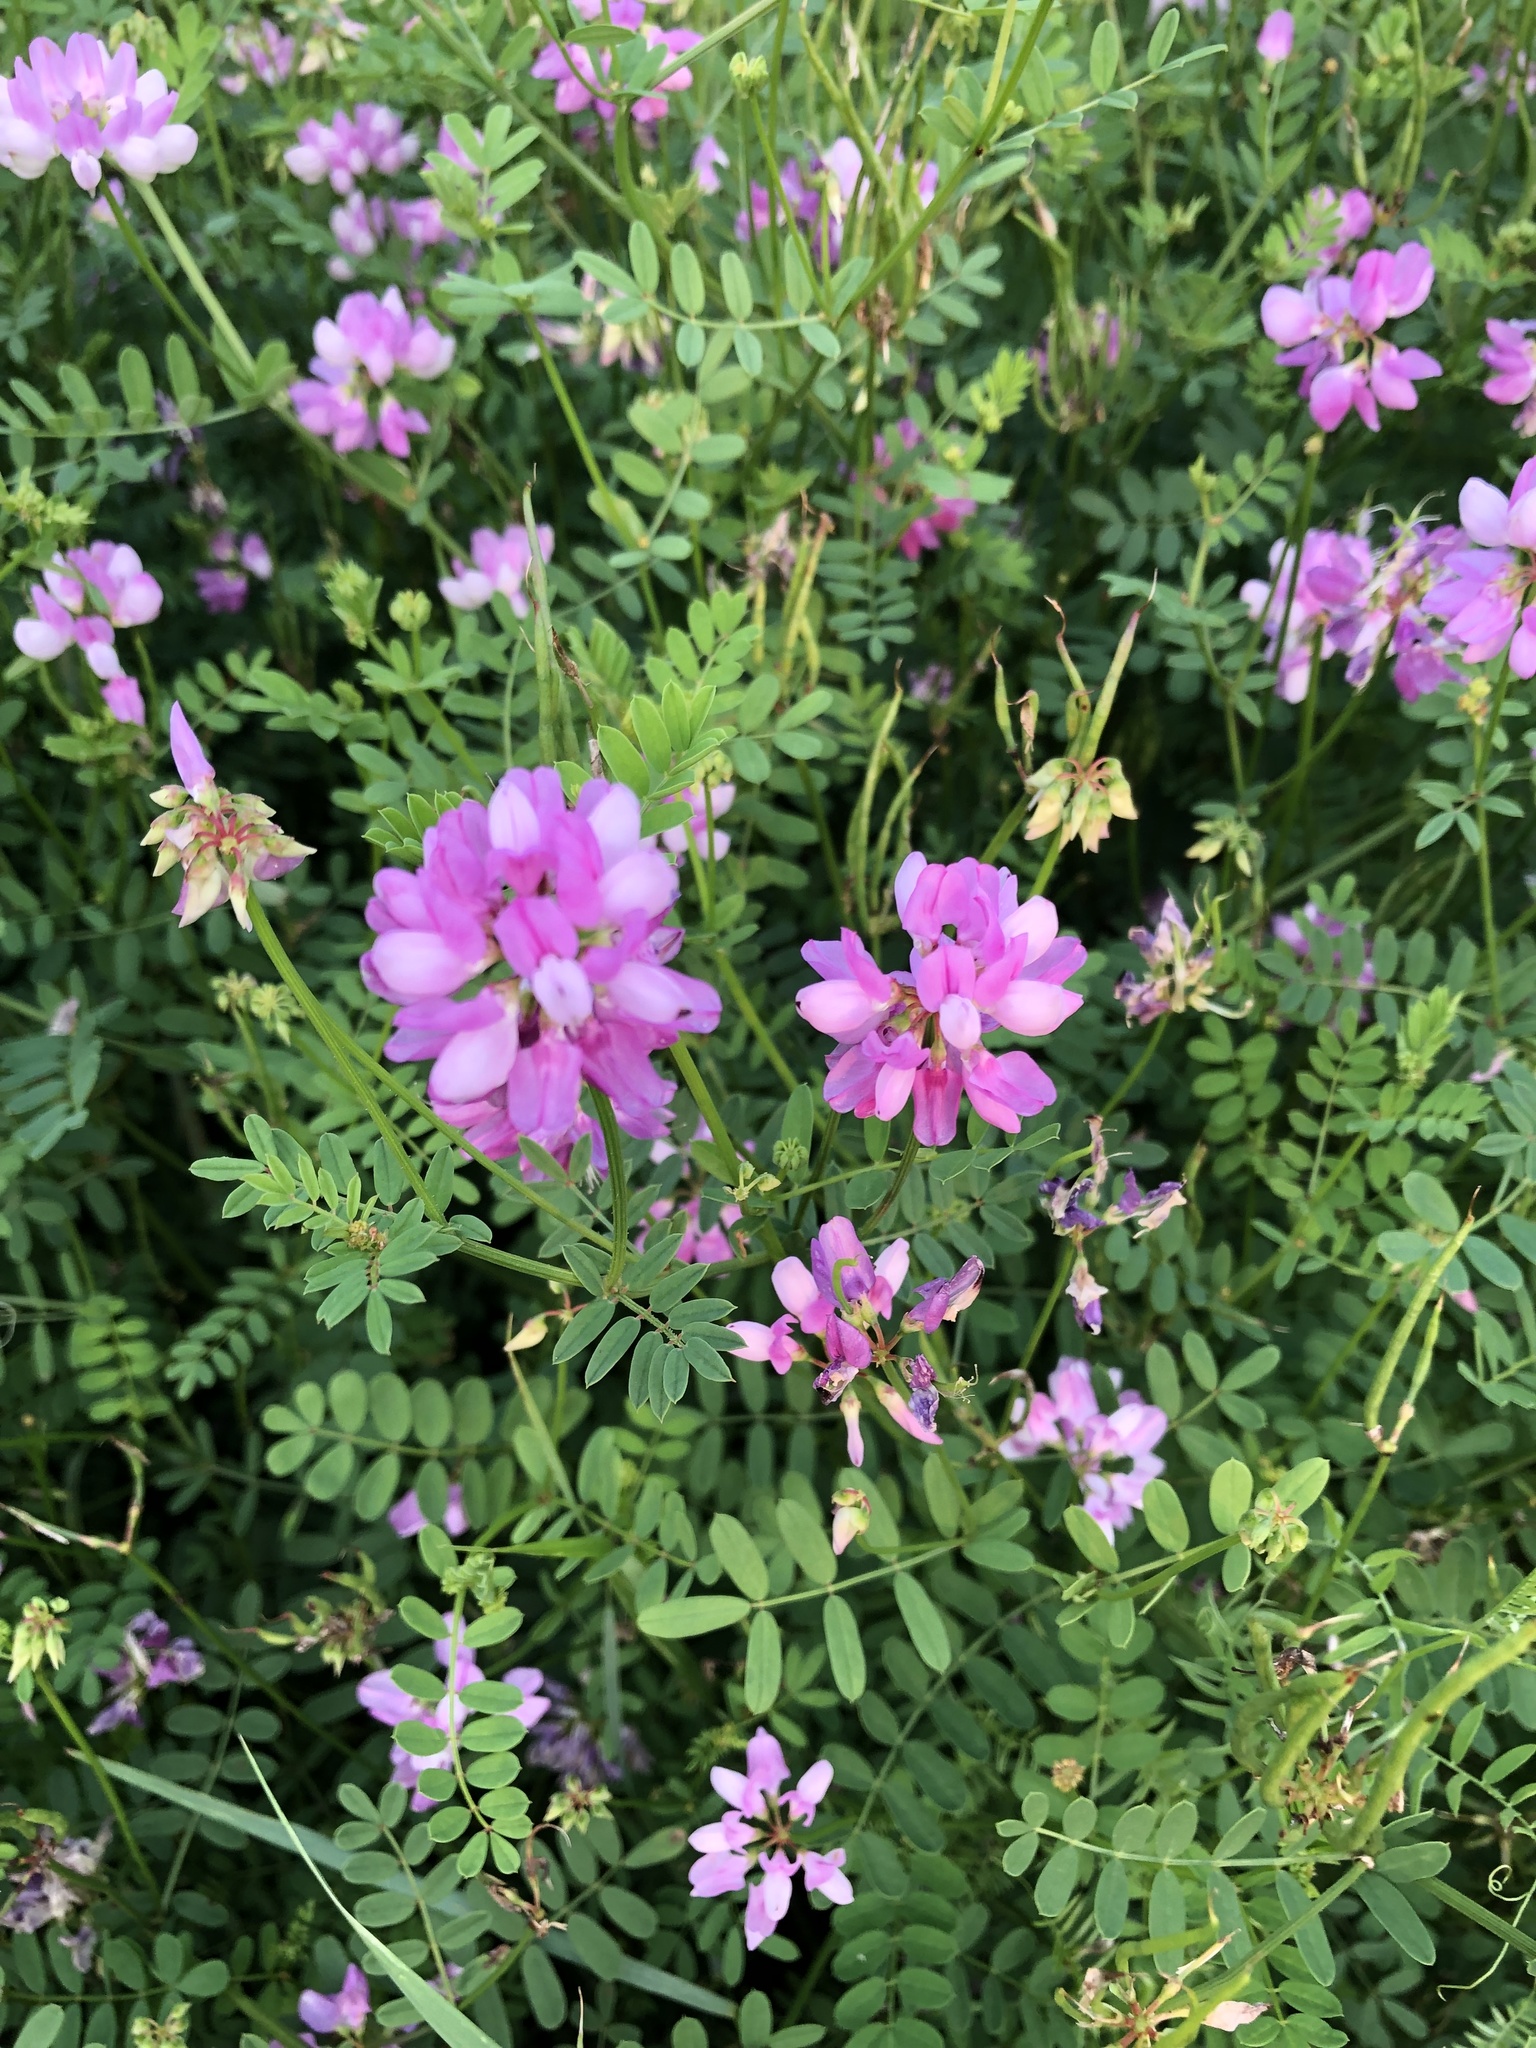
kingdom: Plantae
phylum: Tracheophyta
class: Magnoliopsida
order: Fabales
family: Fabaceae
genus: Coronilla
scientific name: Coronilla varia
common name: Crownvetch
